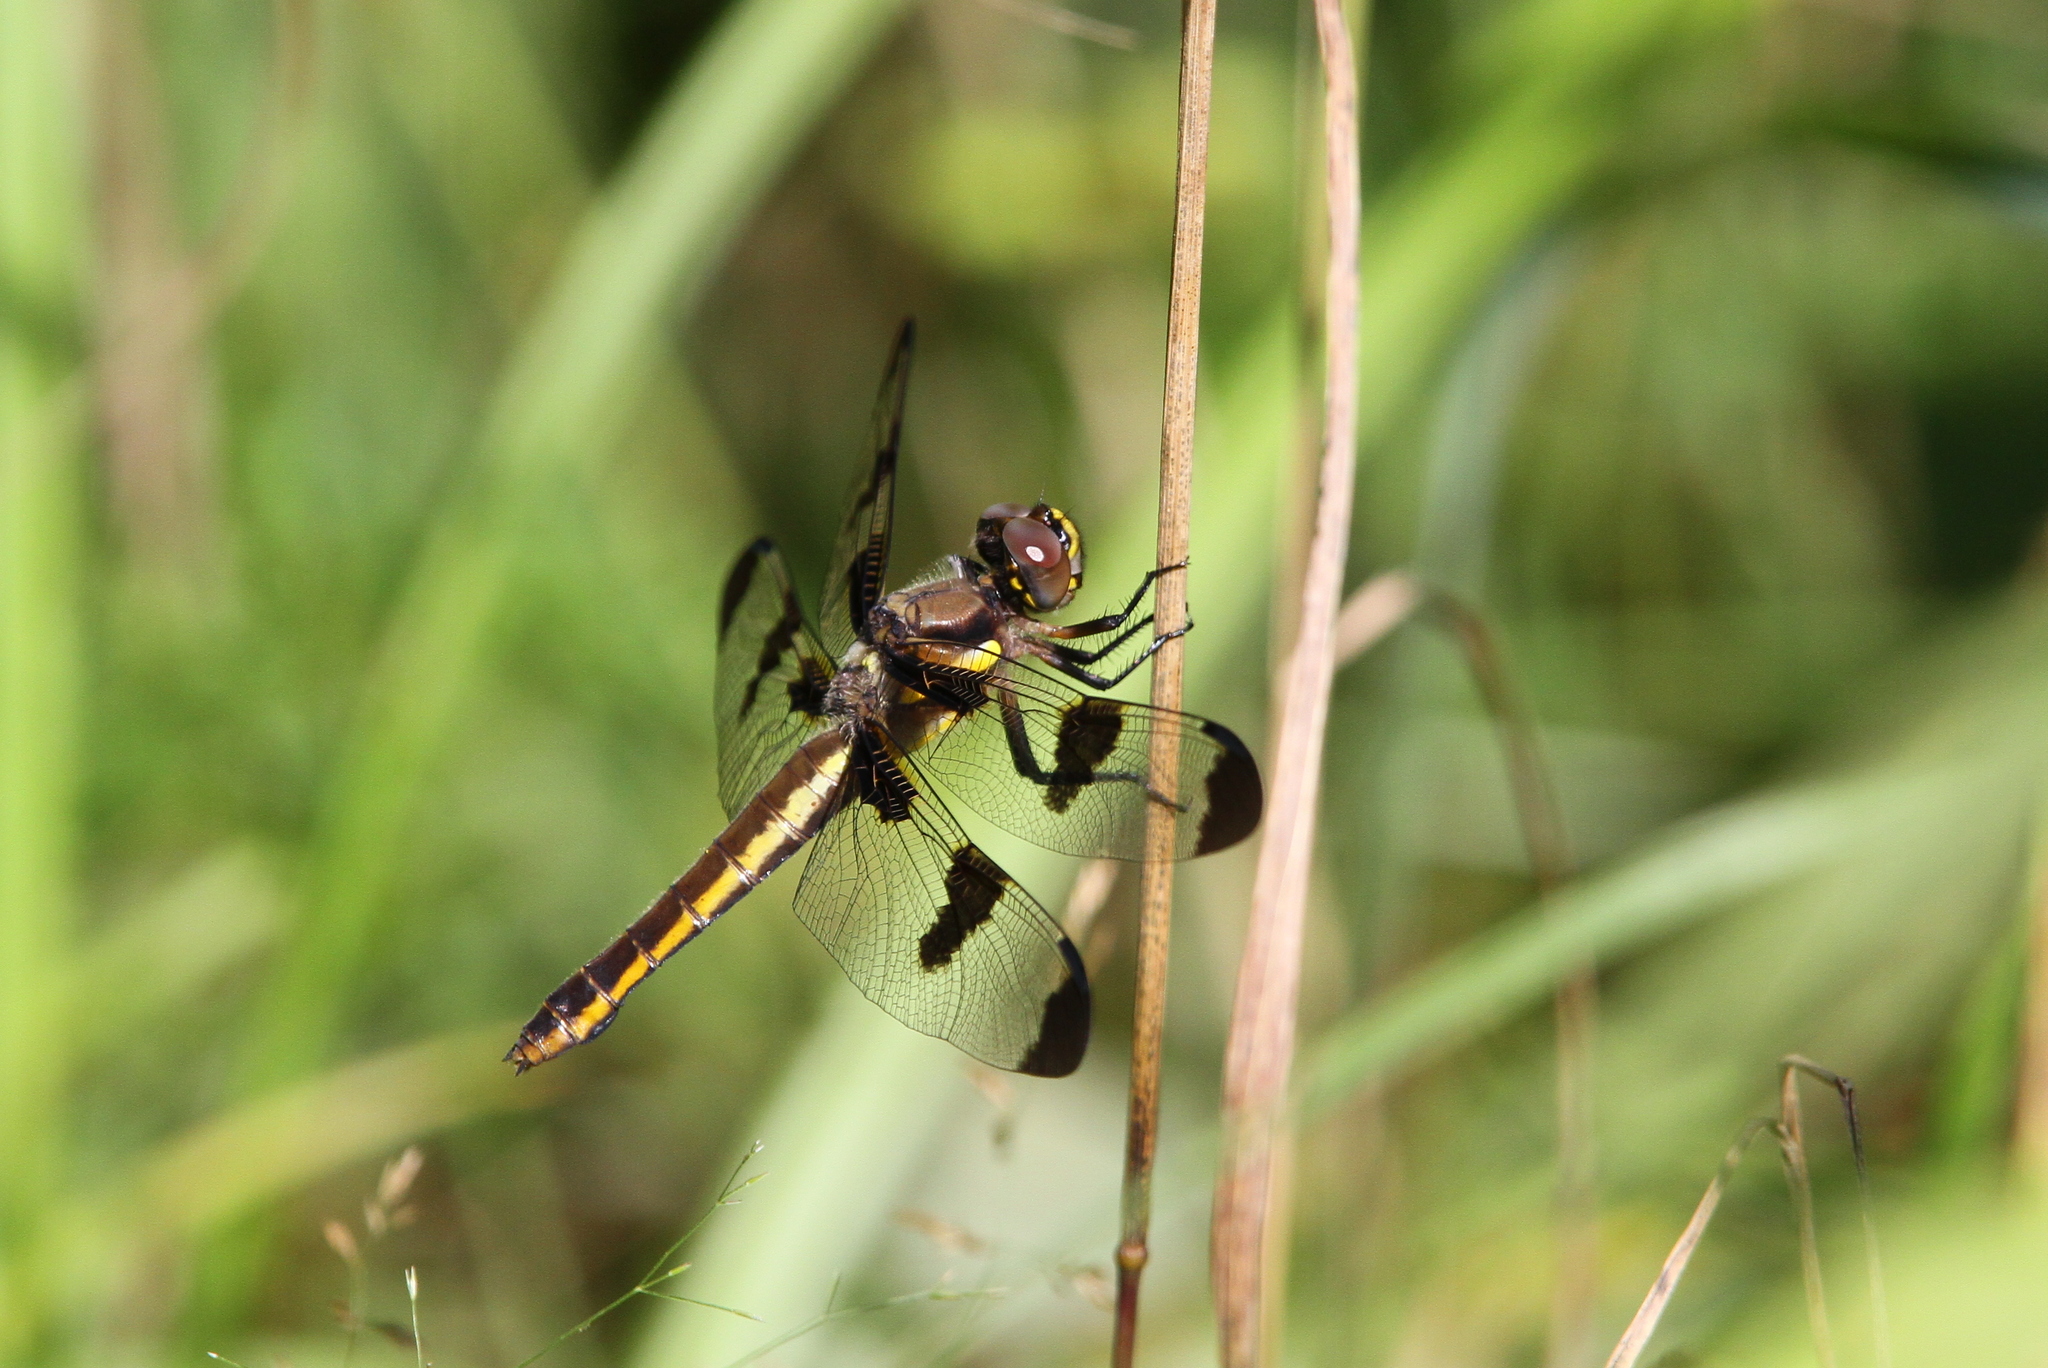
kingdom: Animalia
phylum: Arthropoda
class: Insecta
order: Odonata
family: Libellulidae
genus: Libellula
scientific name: Libellula pulchella
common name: Twelve-spotted skimmer
